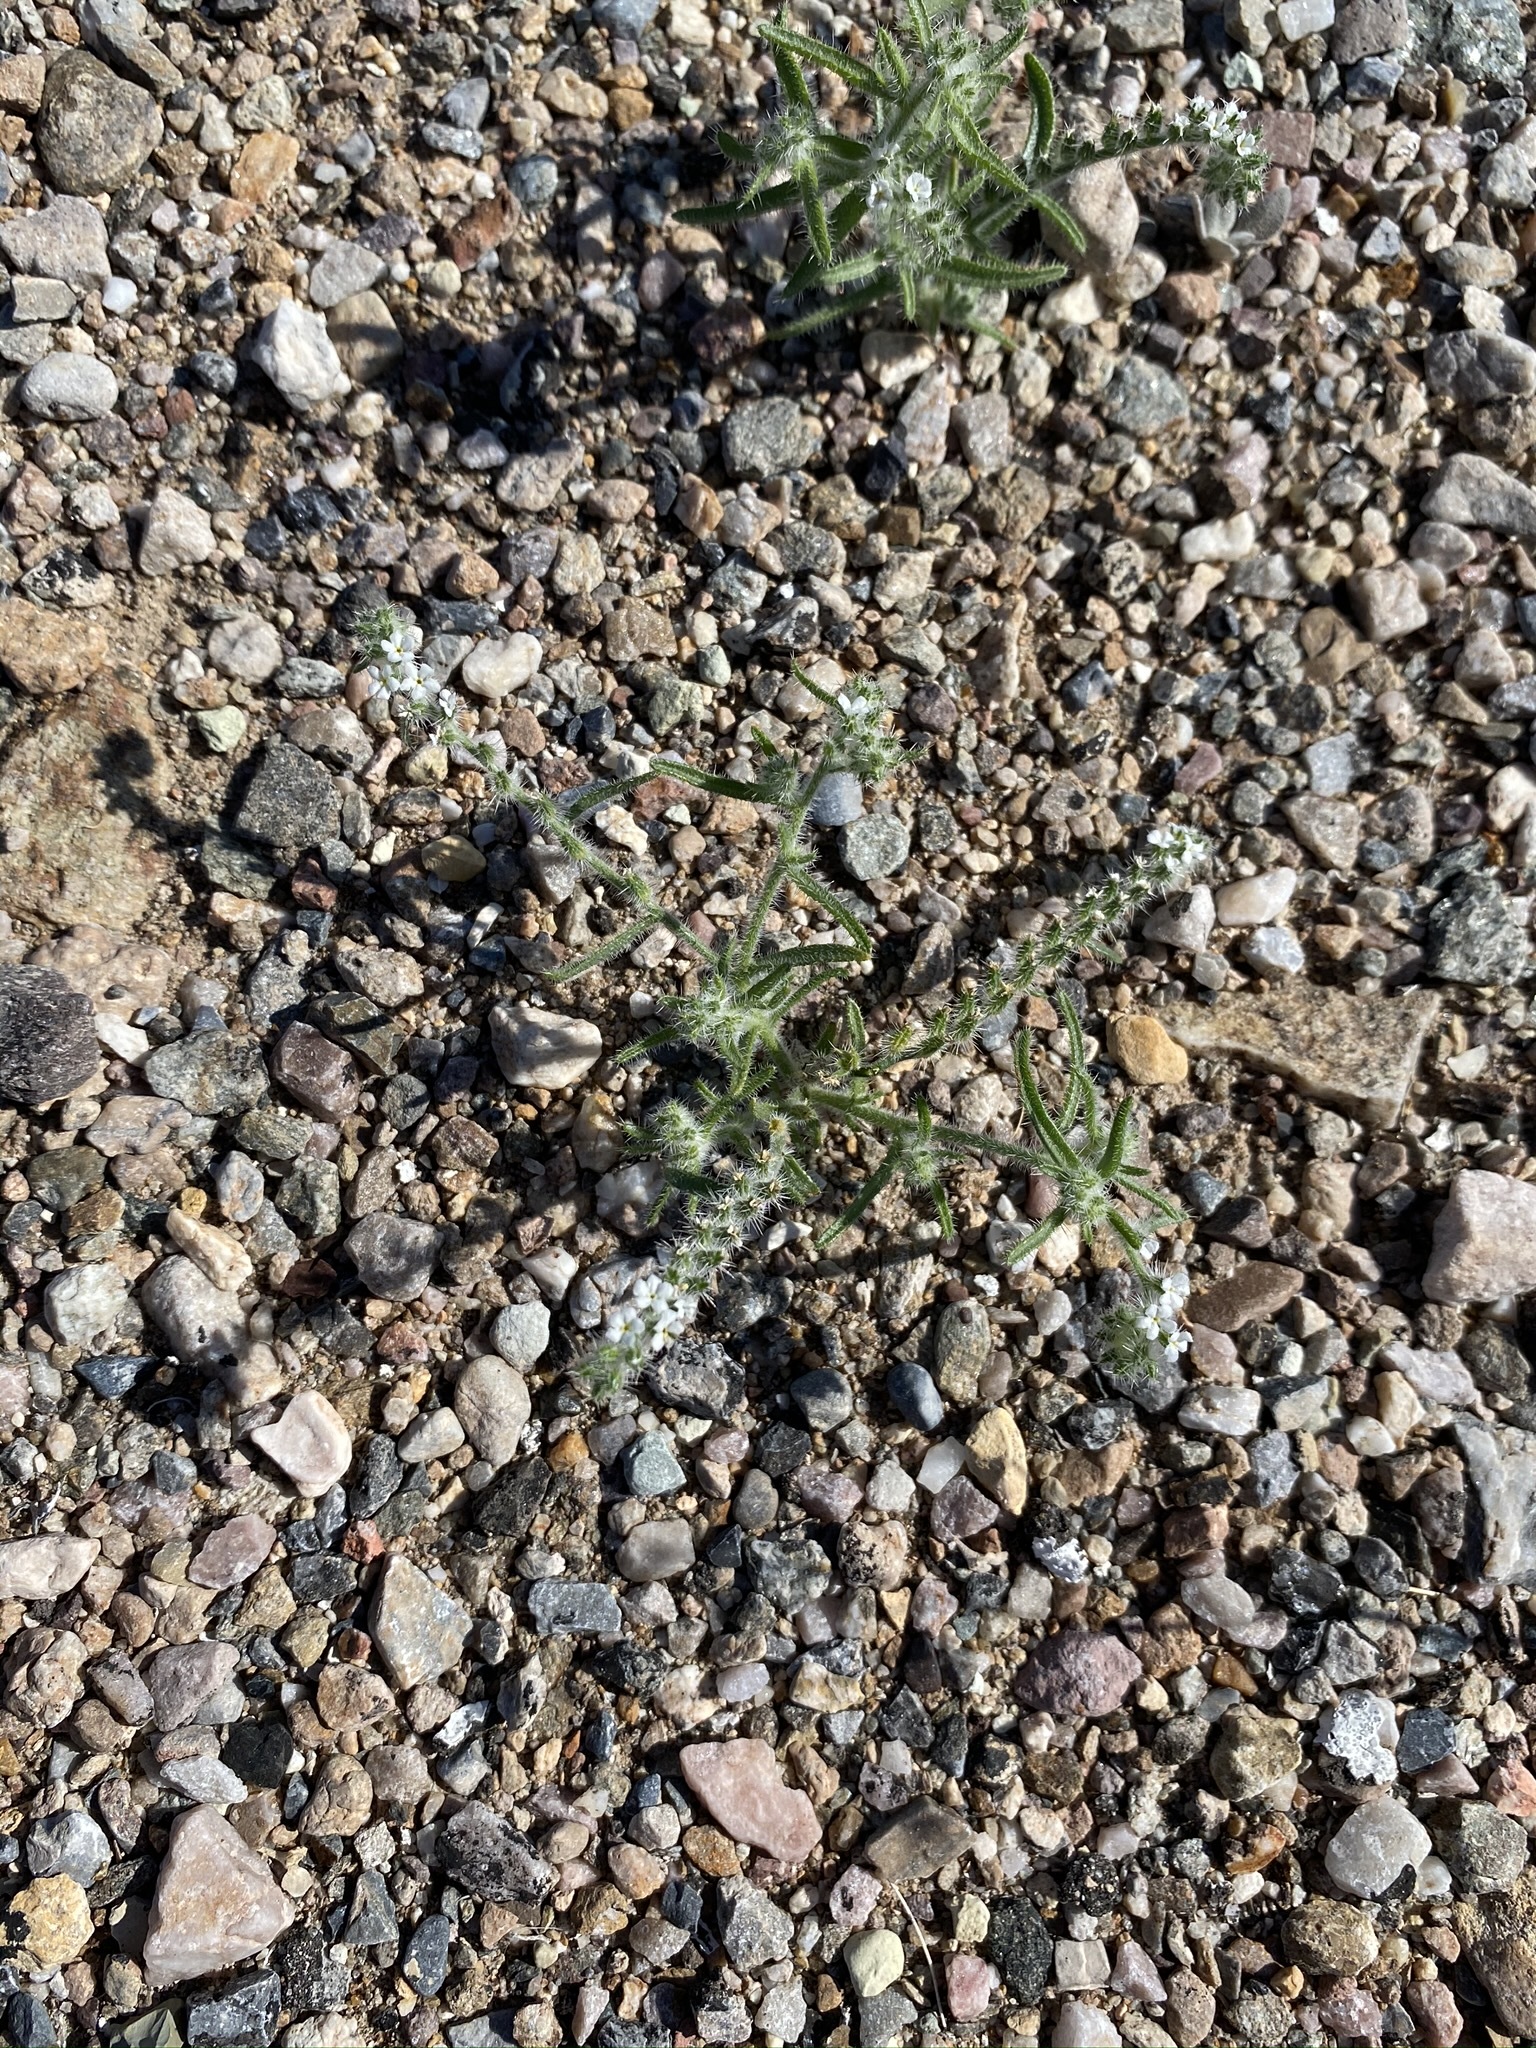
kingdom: Plantae
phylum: Tracheophyta
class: Magnoliopsida
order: Boraginales
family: Boraginaceae
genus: Johnstonella
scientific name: Johnstonella angustifolia
